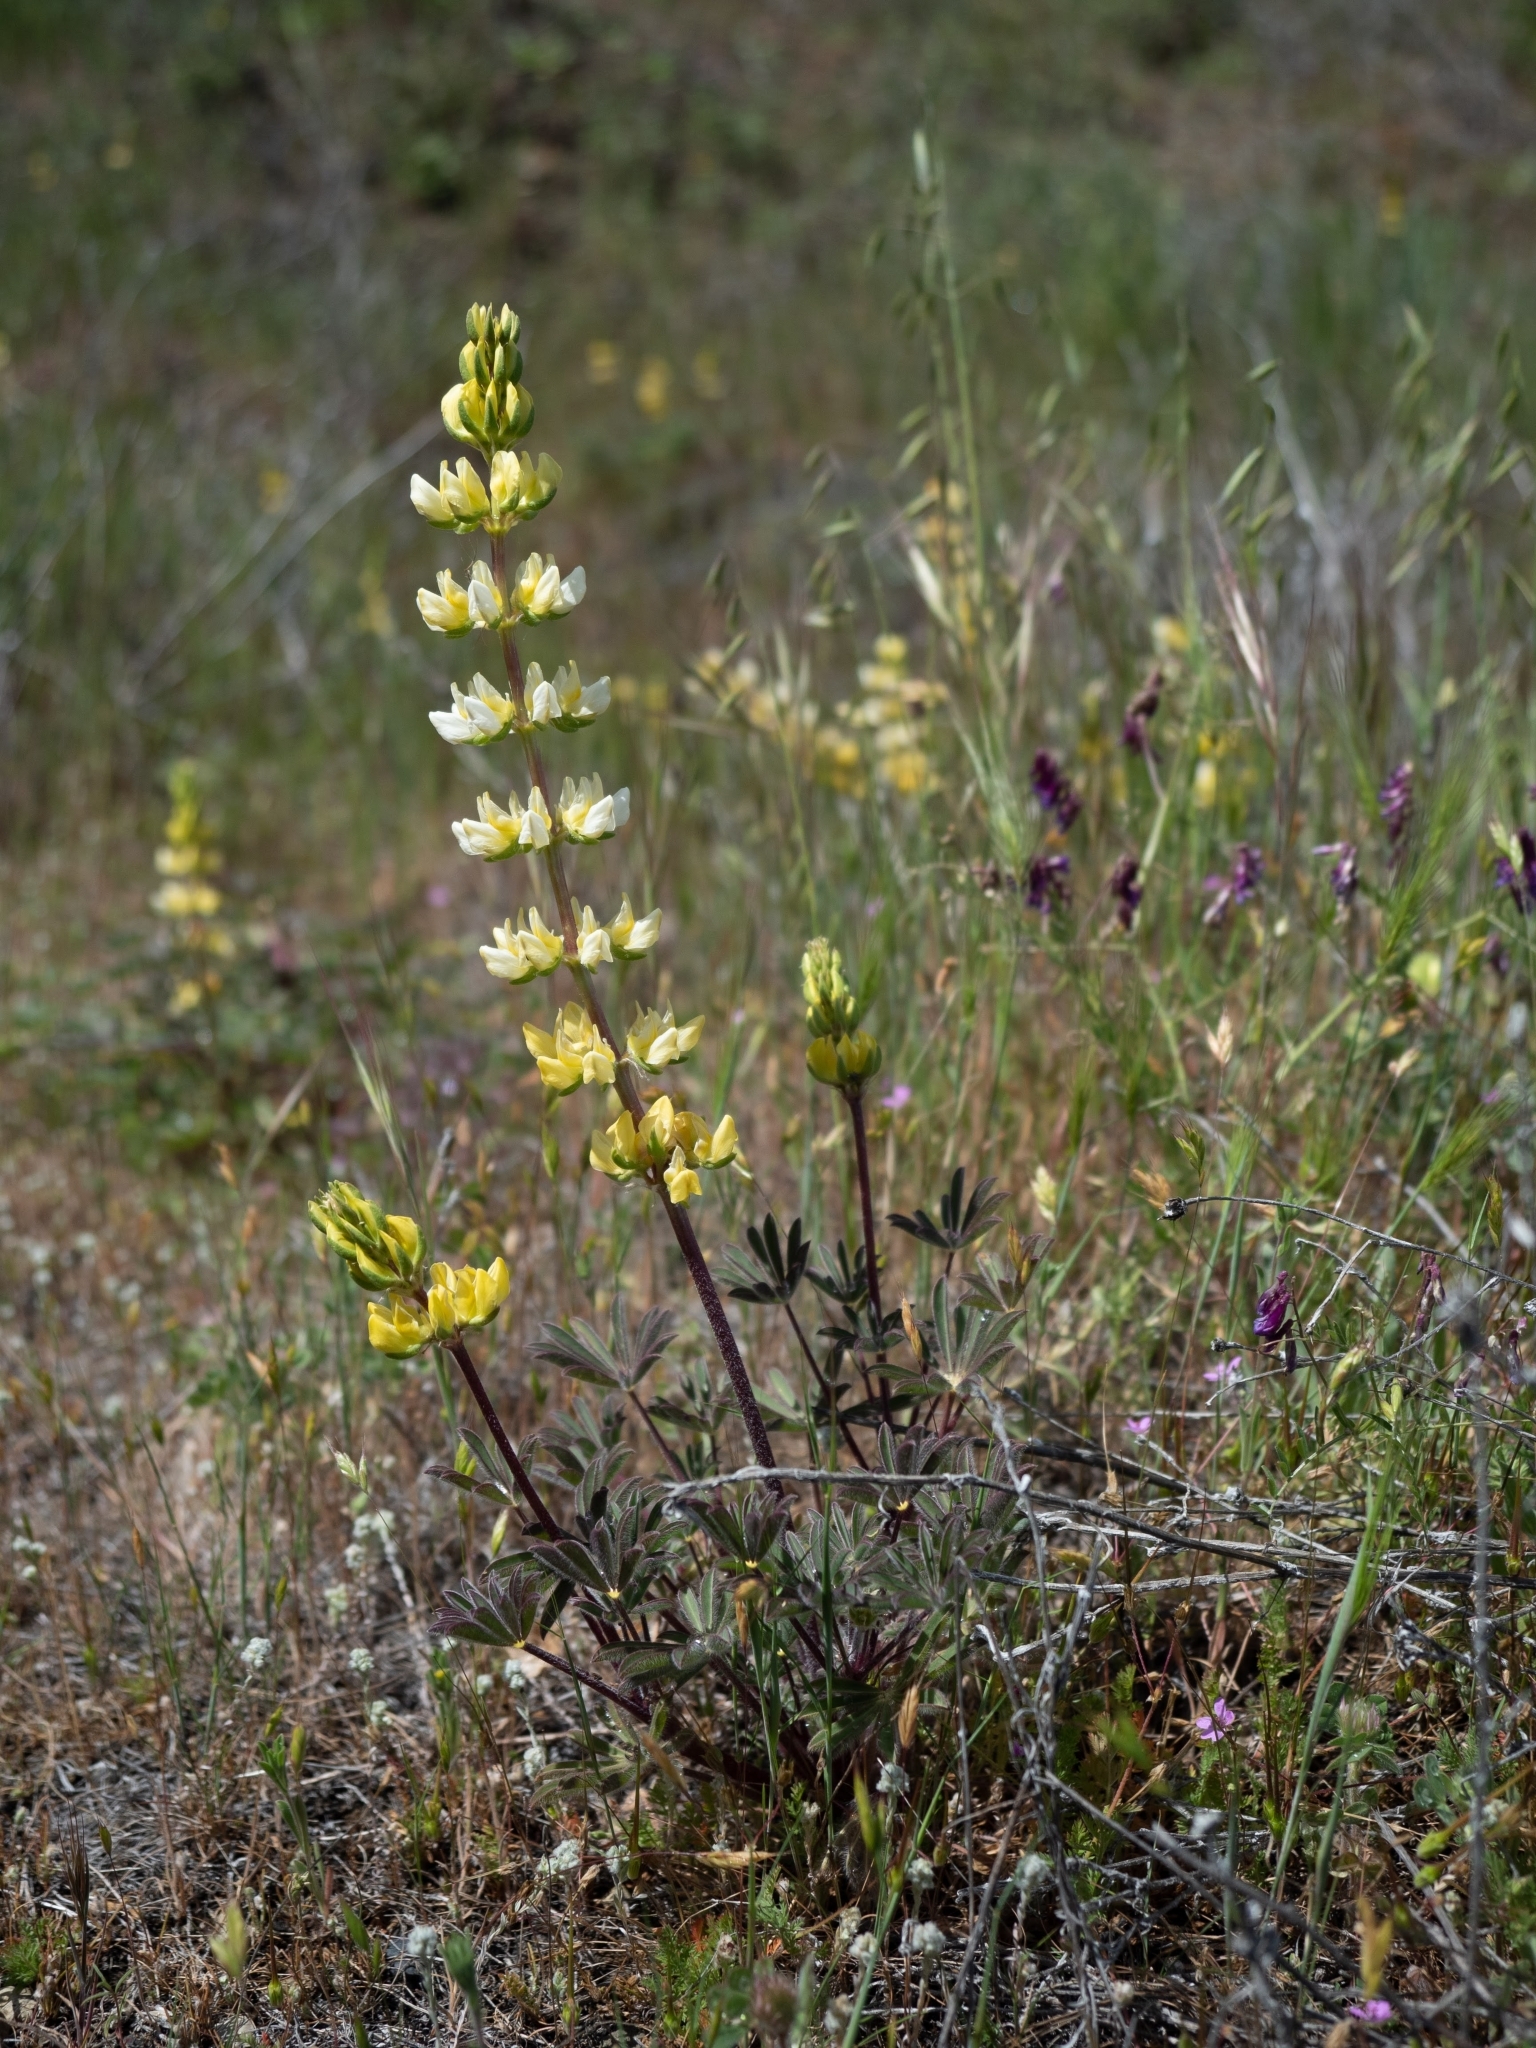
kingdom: Plantae
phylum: Tracheophyta
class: Magnoliopsida
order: Fabales
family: Fabaceae
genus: Lupinus
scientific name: Lupinus microcarpus
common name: Chick lupine
